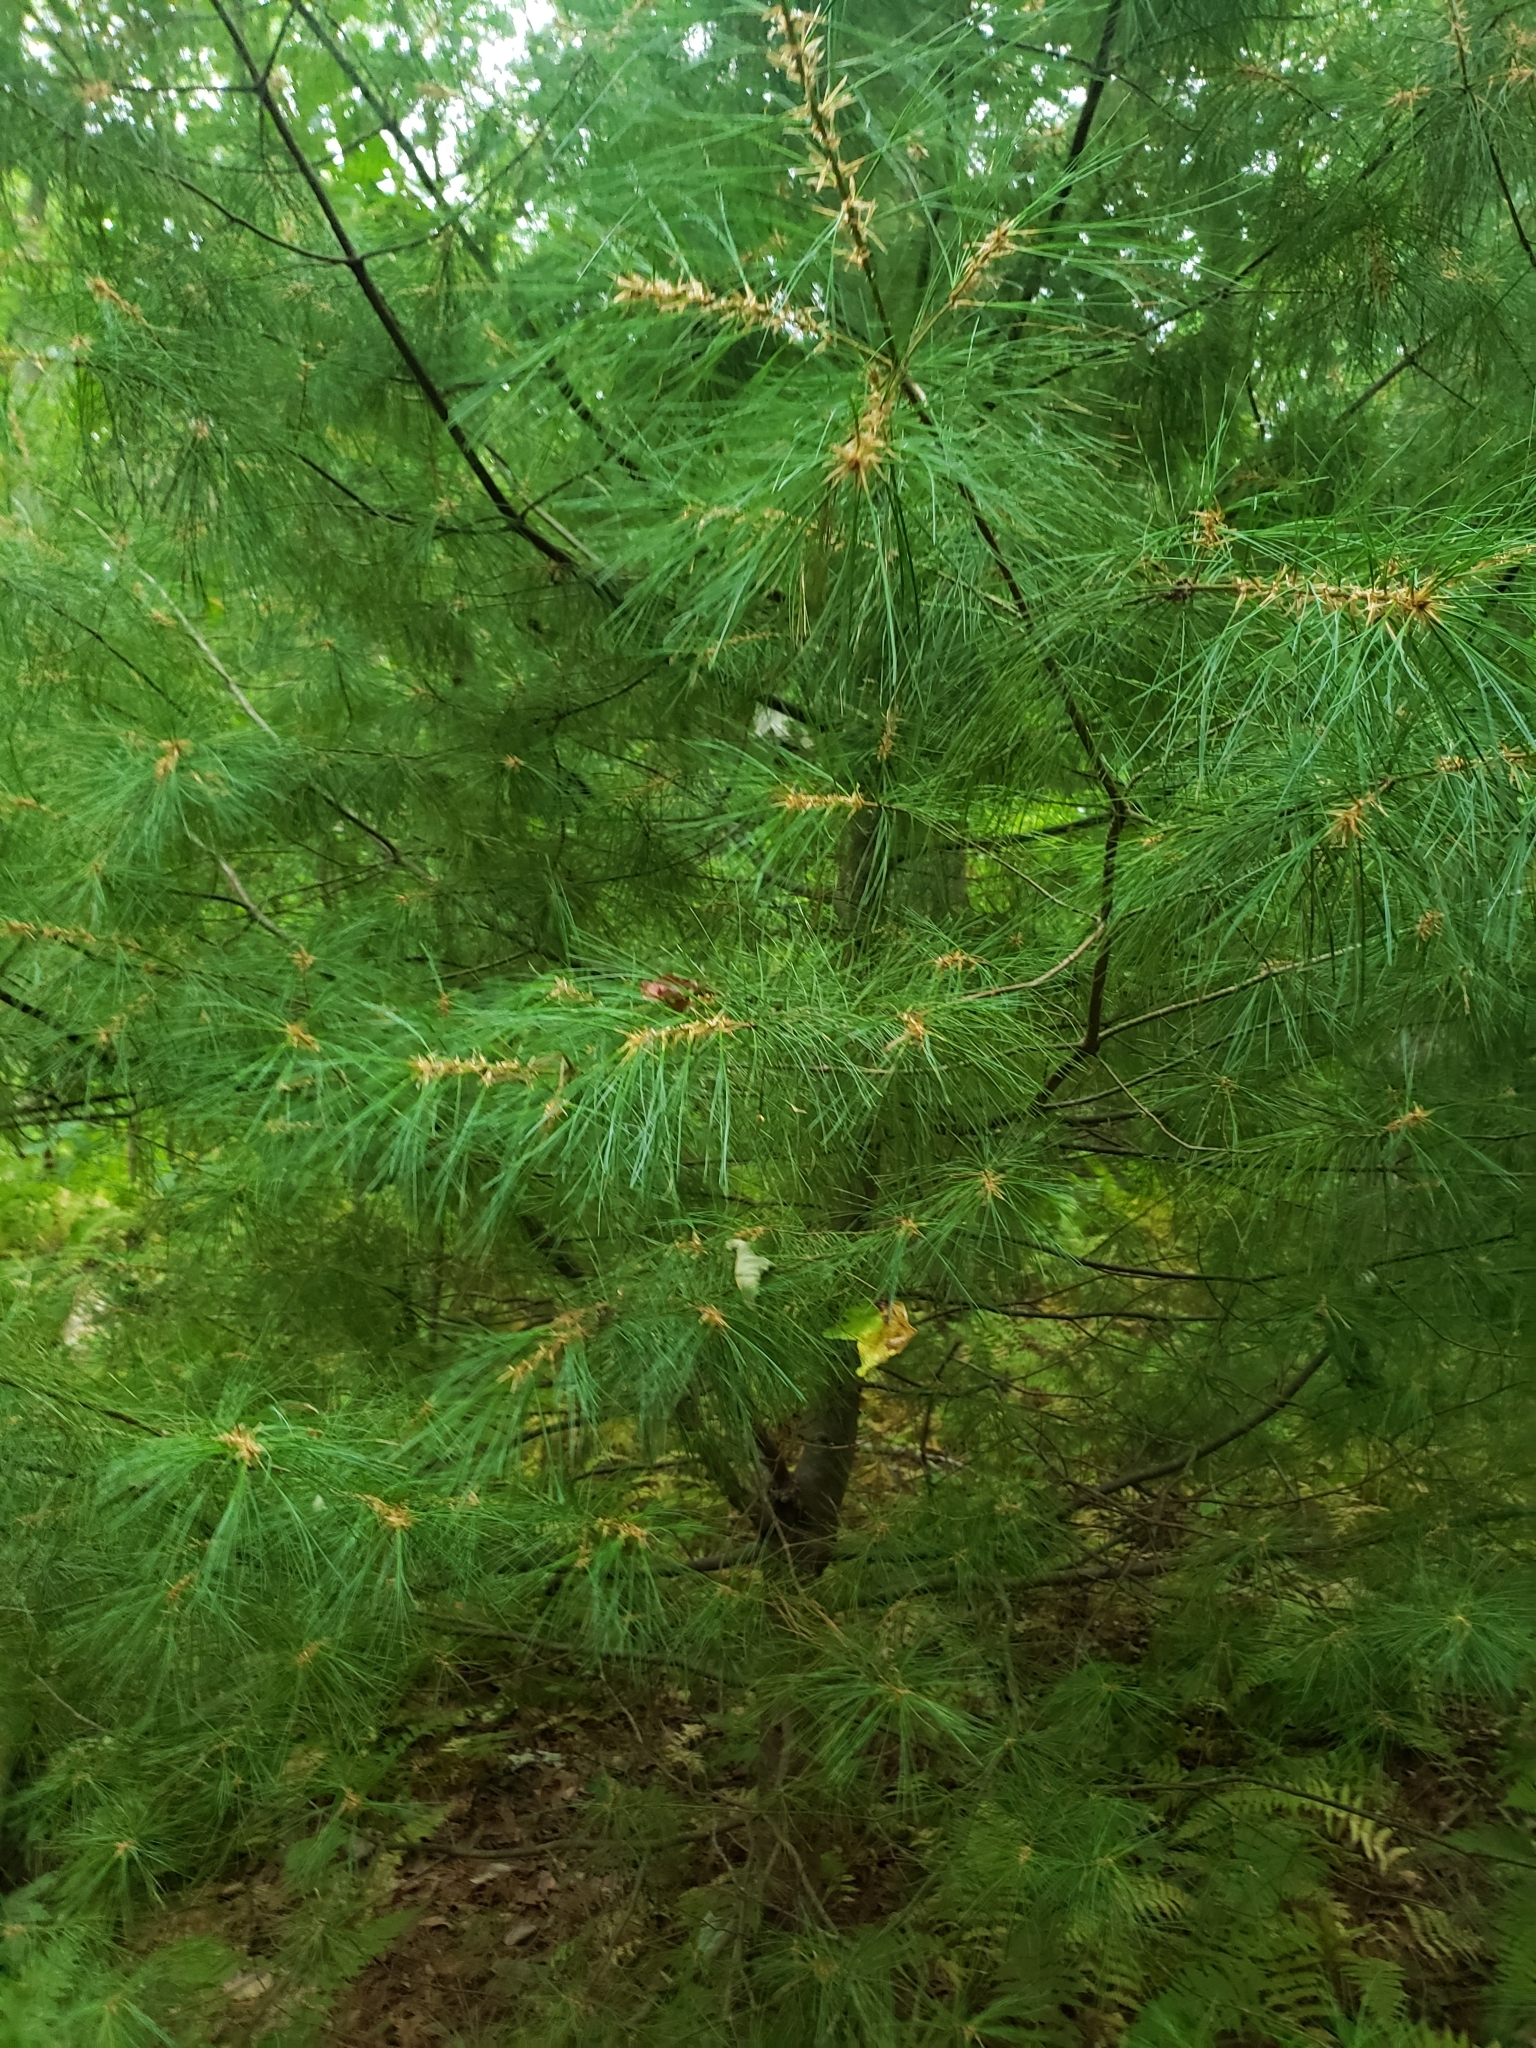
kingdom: Plantae
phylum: Tracheophyta
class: Pinopsida
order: Pinales
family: Pinaceae
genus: Pinus
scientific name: Pinus strobus
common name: Weymouth pine
